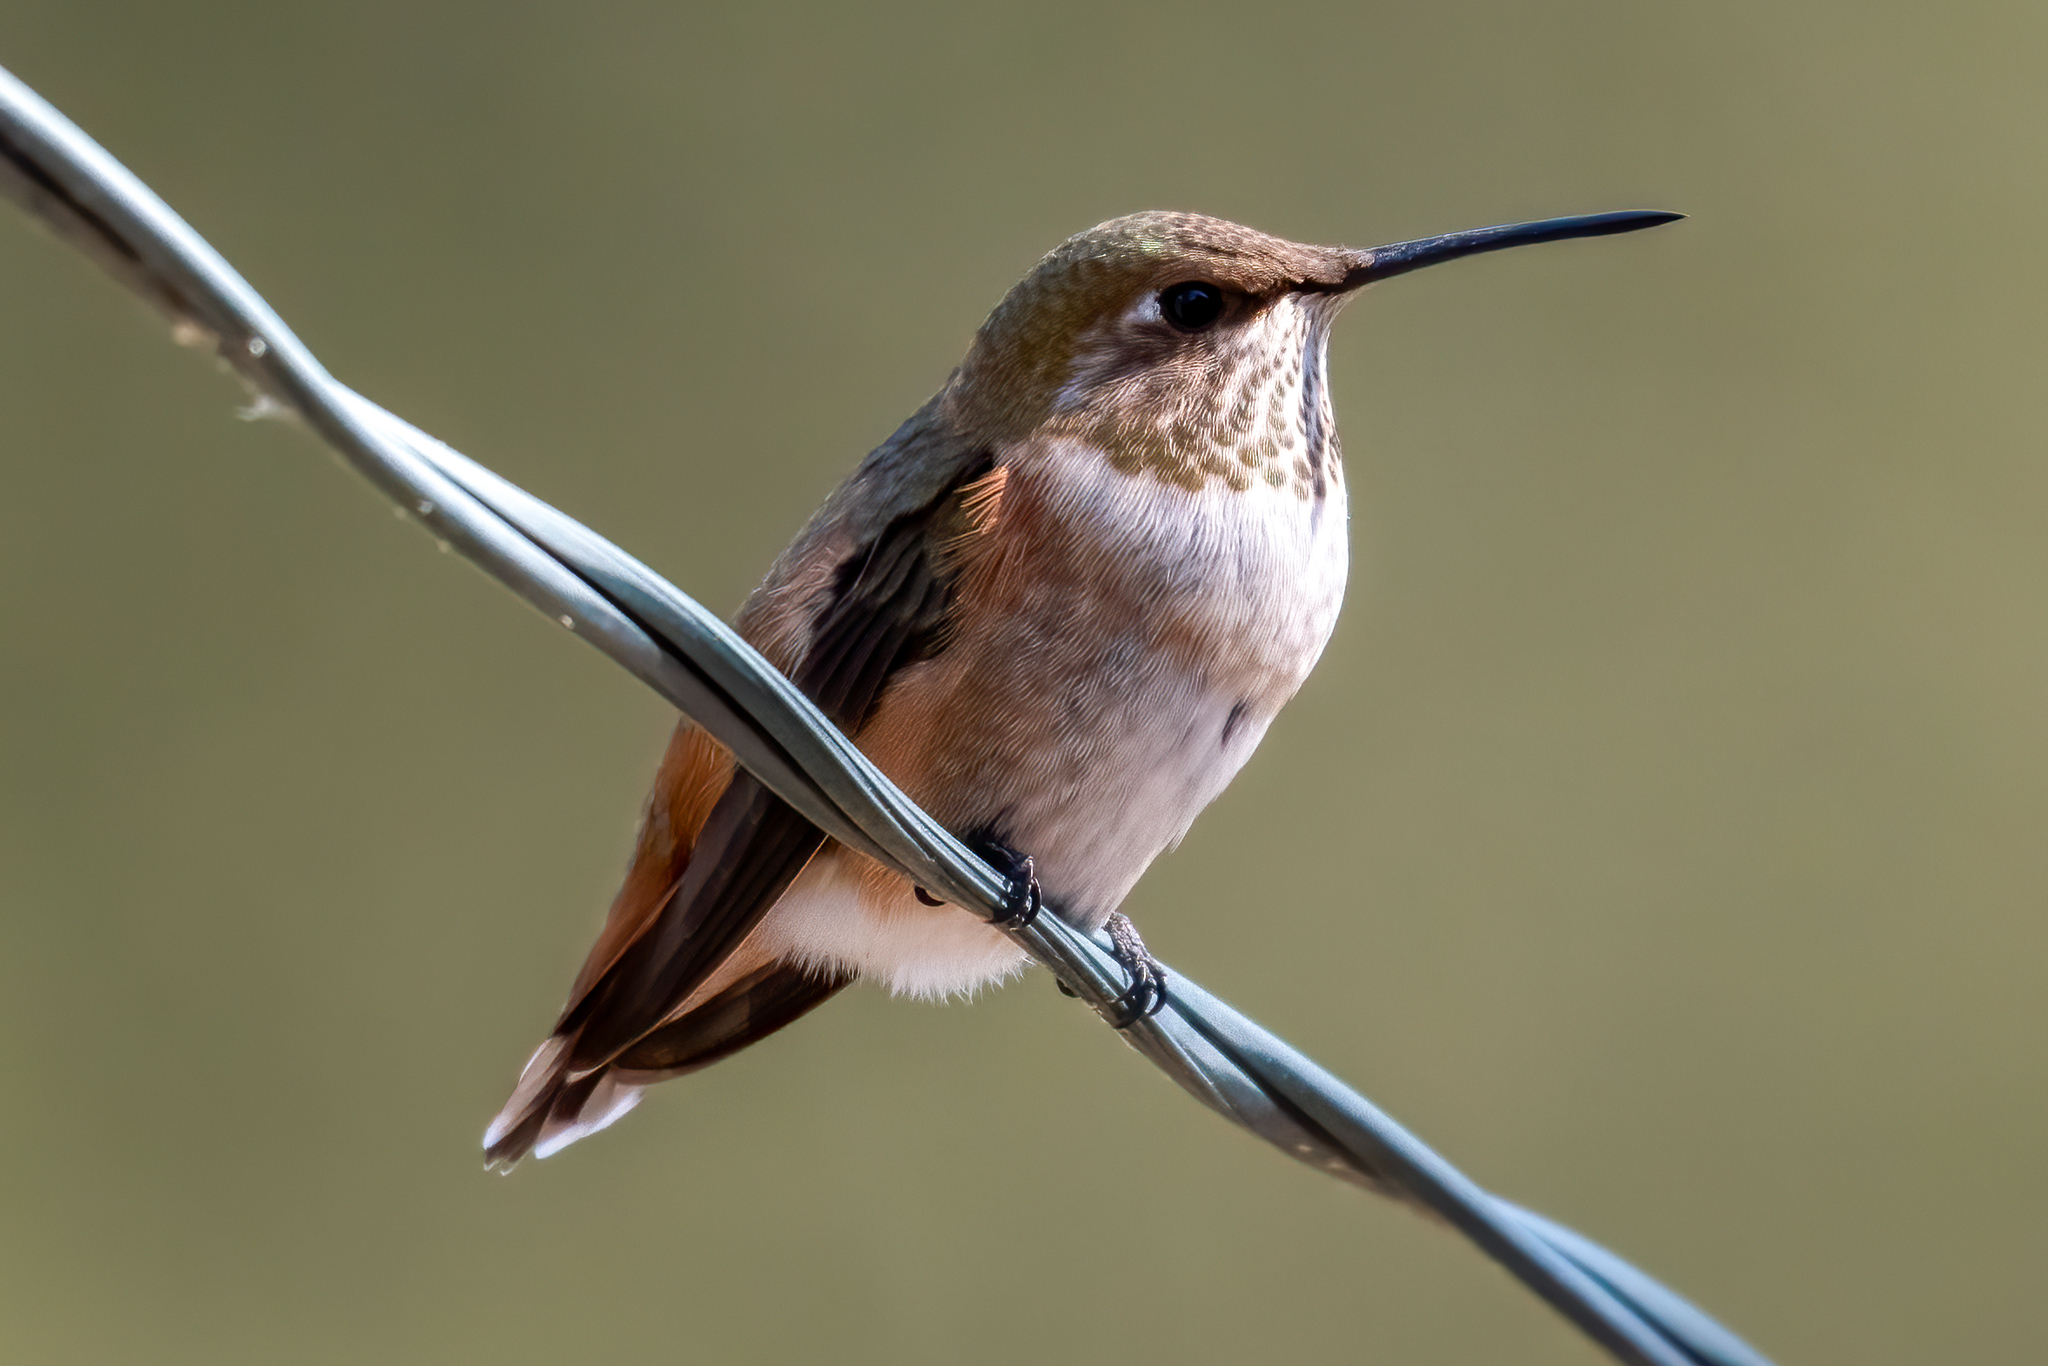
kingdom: Animalia
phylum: Chordata
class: Aves
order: Apodiformes
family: Trochilidae
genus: Selasphorus
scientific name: Selasphorus rufus
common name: Rufous hummingbird
